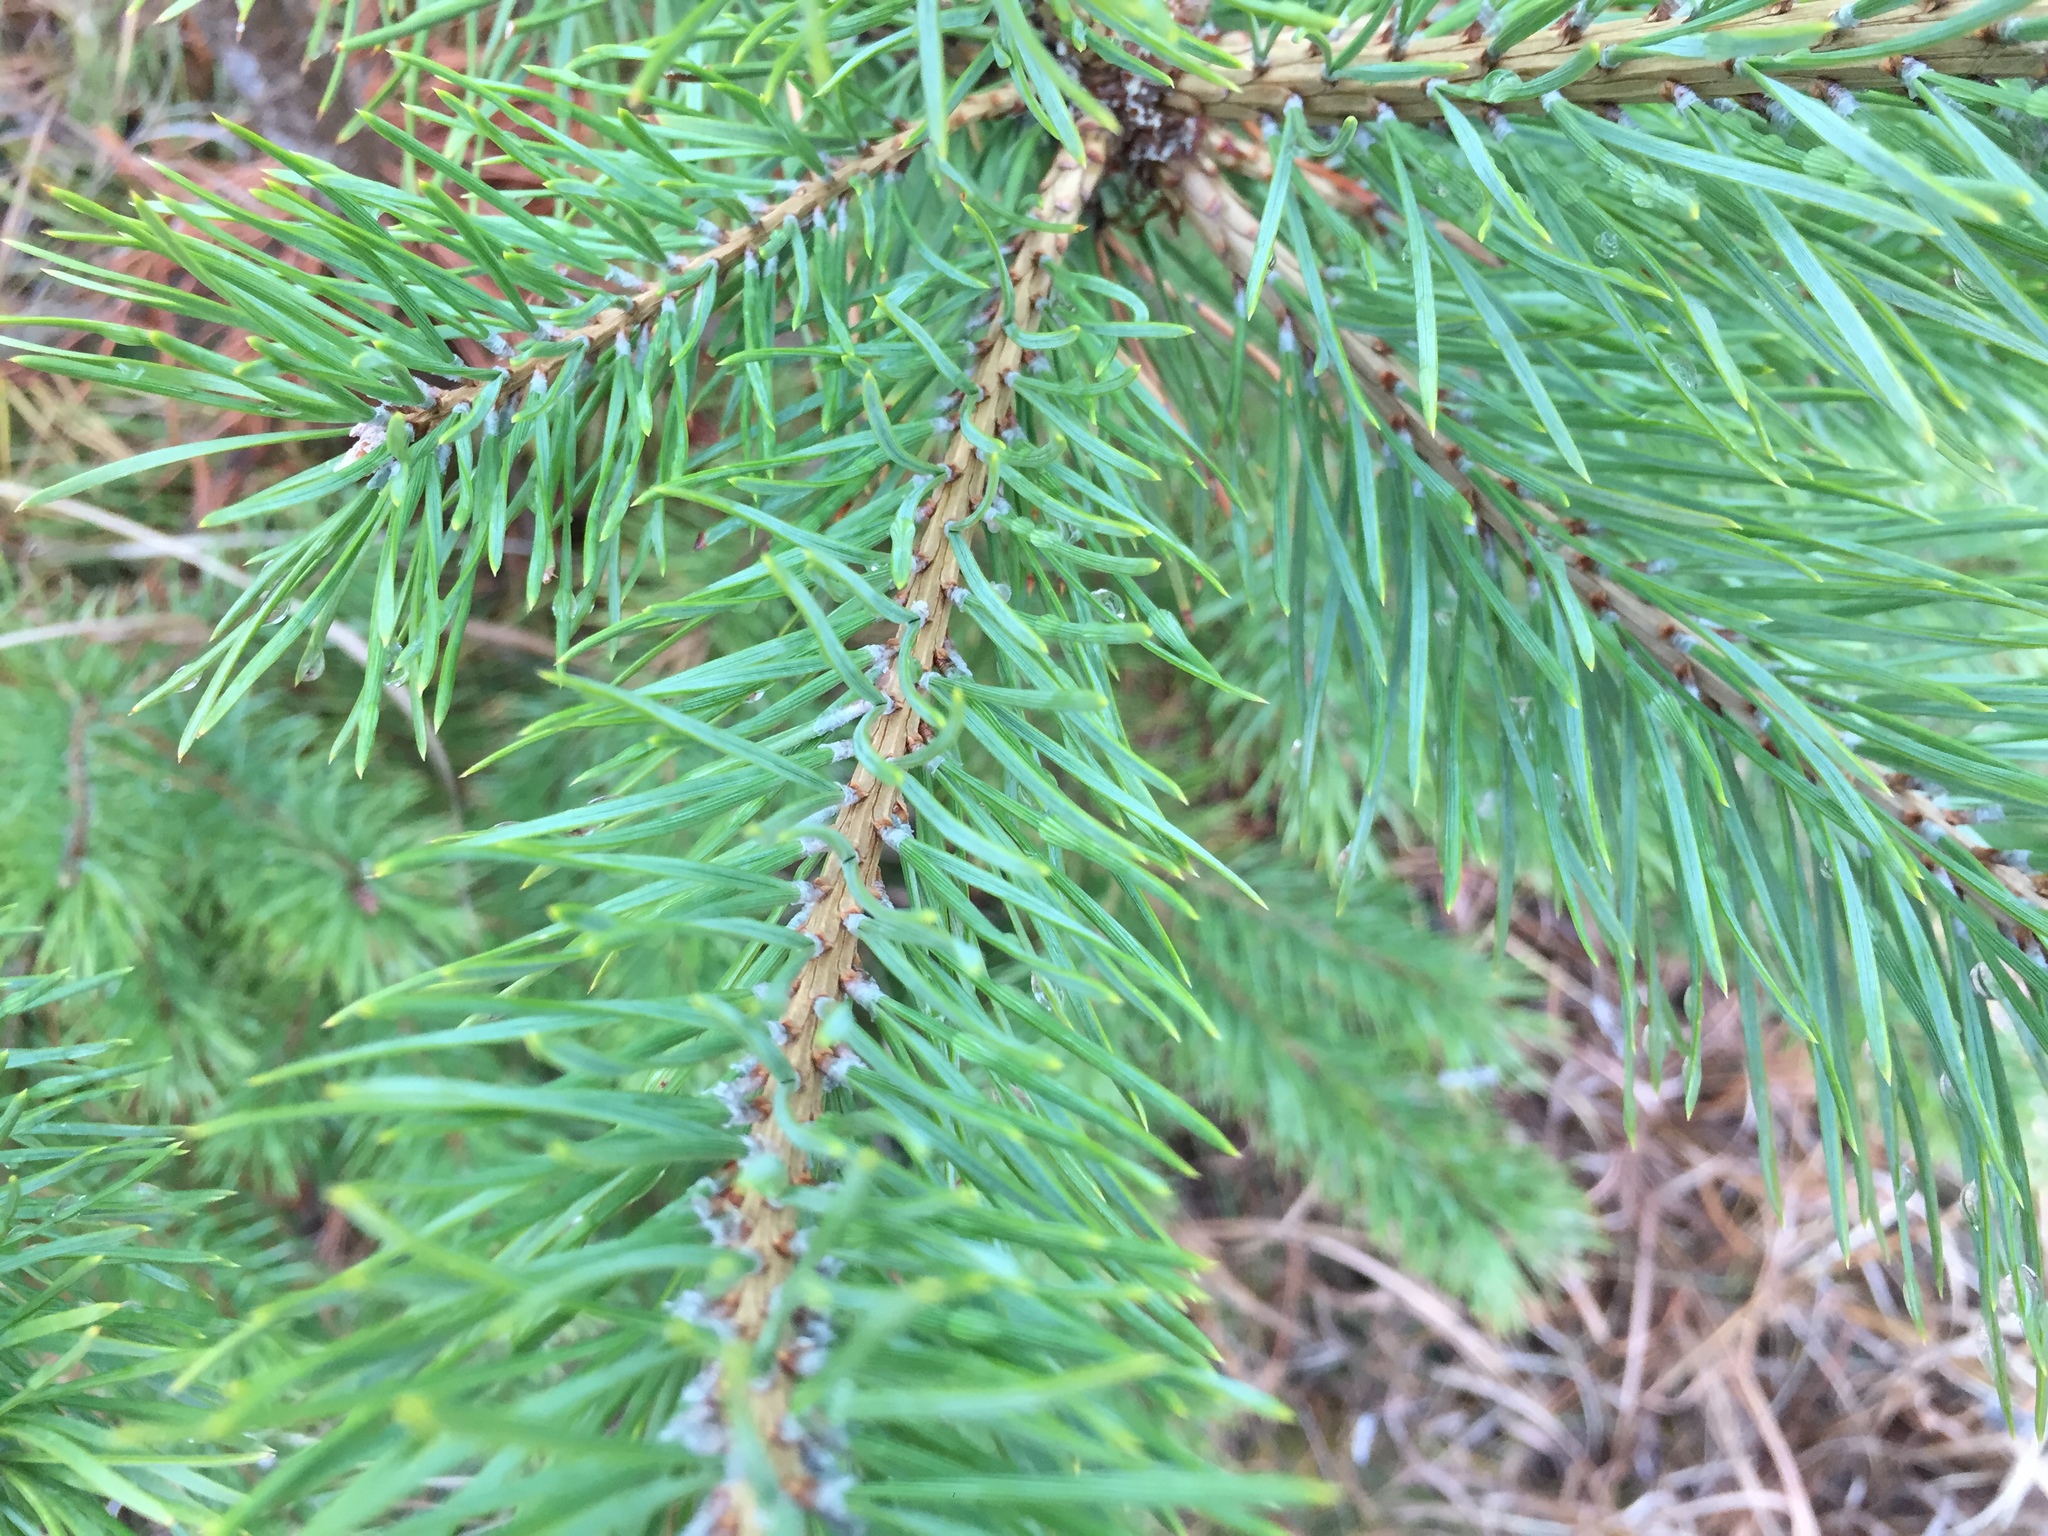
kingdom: Plantae
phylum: Tracheophyta
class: Pinopsida
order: Pinales
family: Pinaceae
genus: Pinus
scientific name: Pinus banksiana
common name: Jack pine
